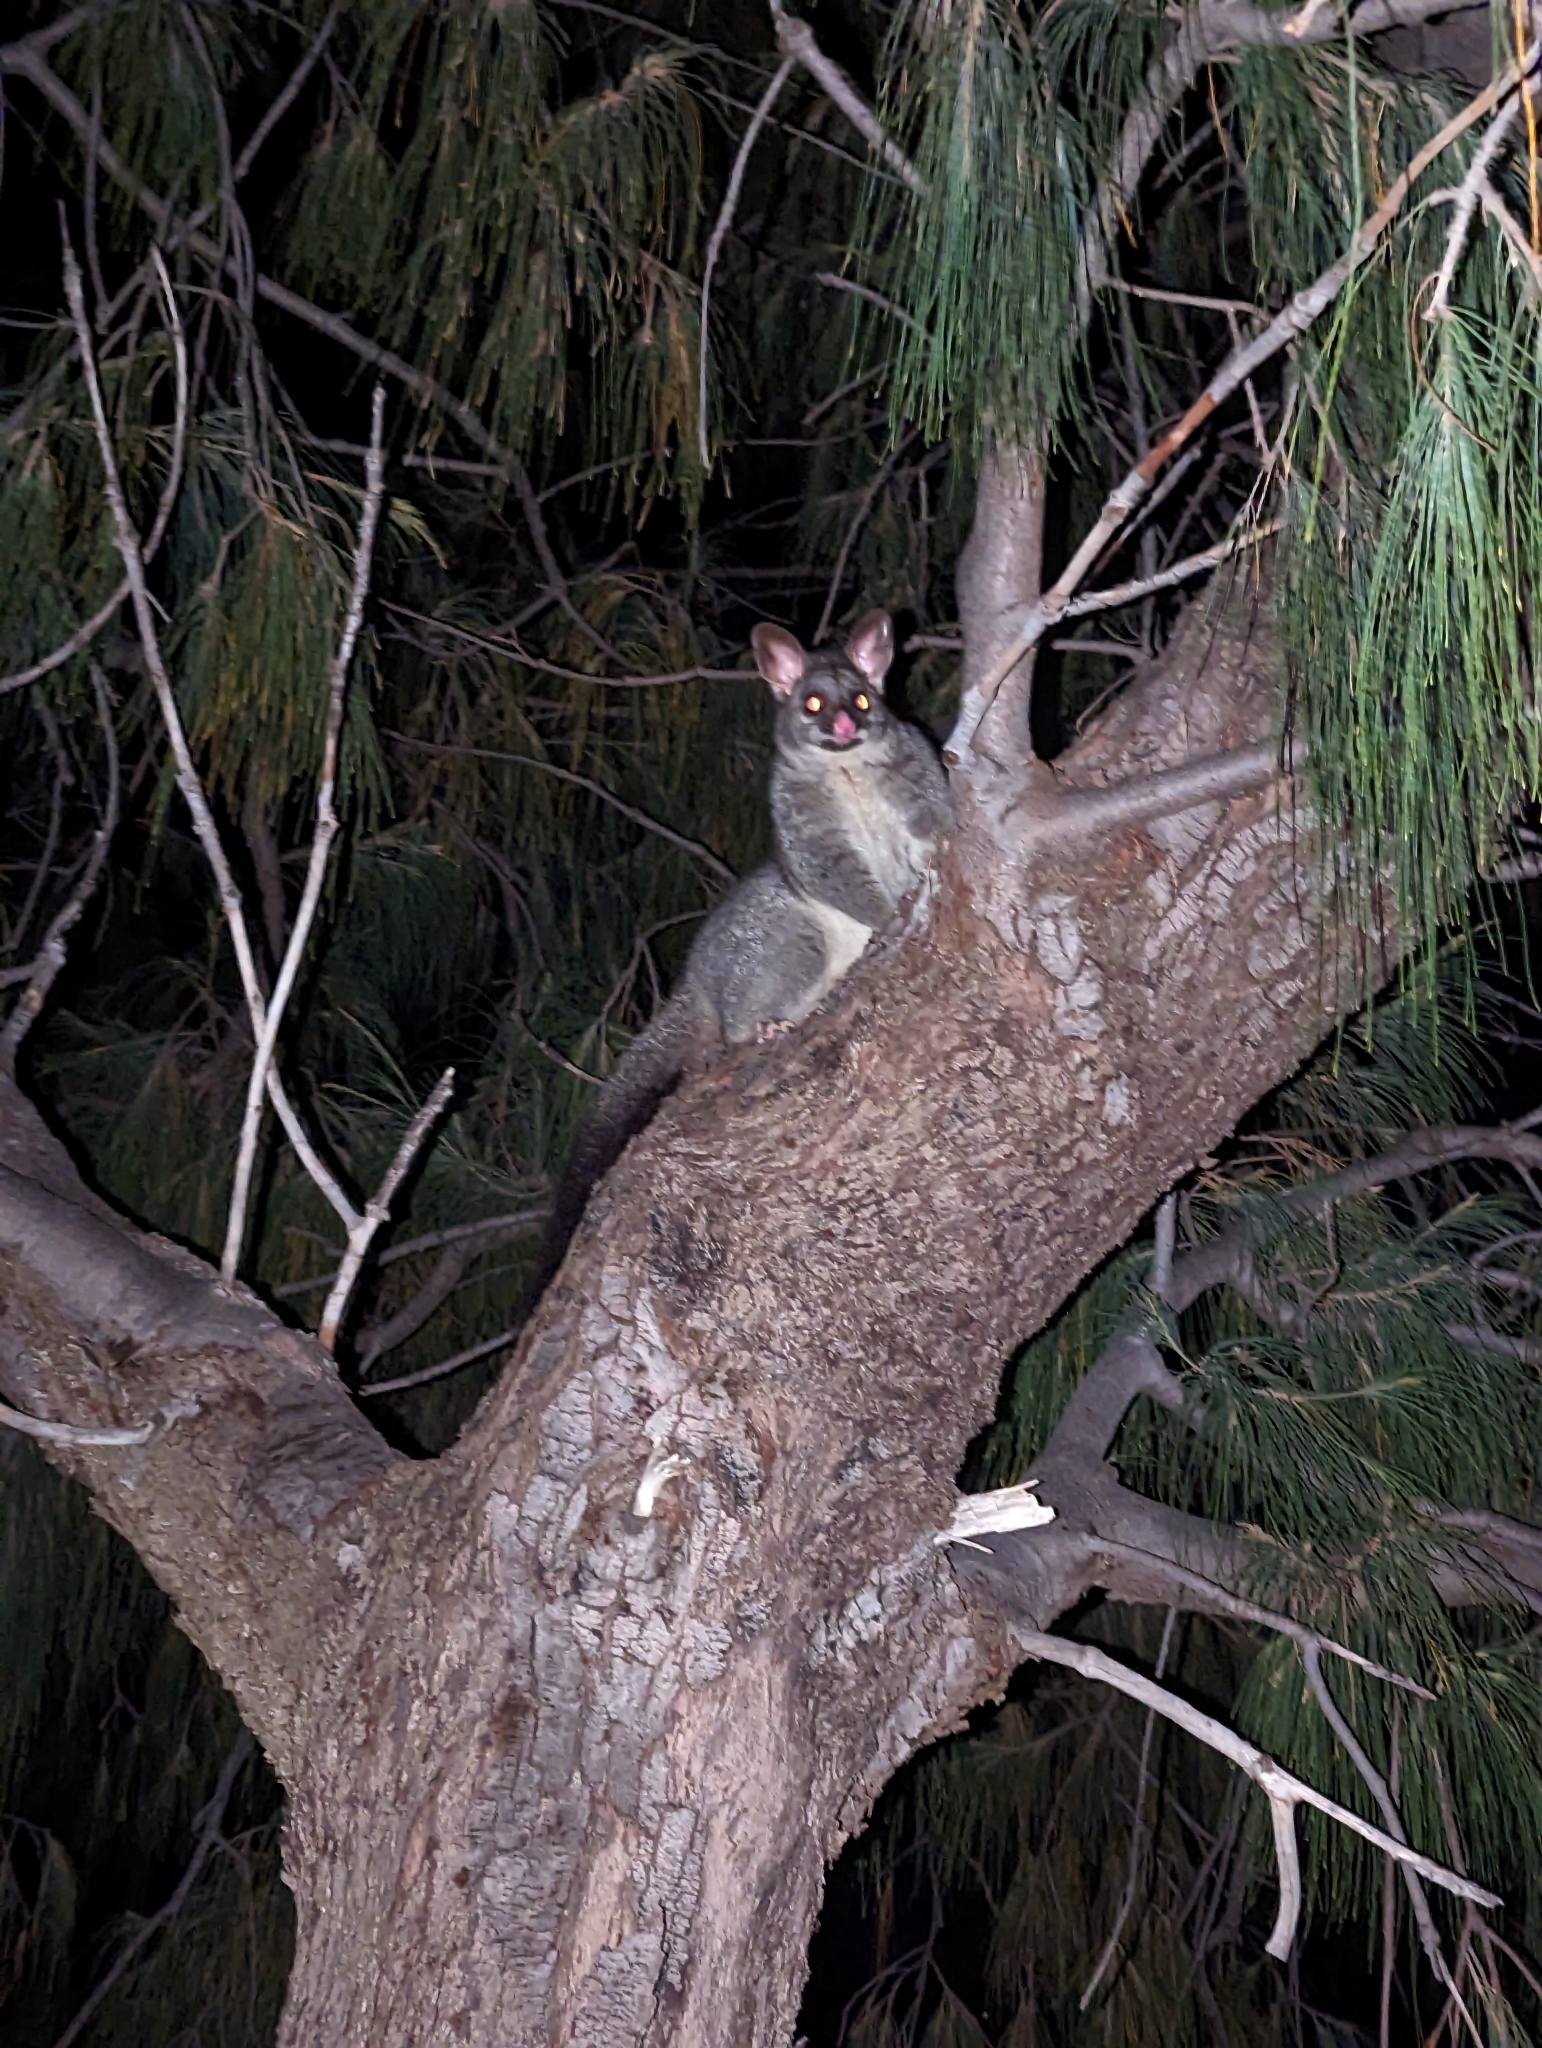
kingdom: Animalia
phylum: Chordata
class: Mammalia
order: Diprotodontia
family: Phalangeridae
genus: Trichosurus
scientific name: Trichosurus vulpecula
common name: Common brushtail
